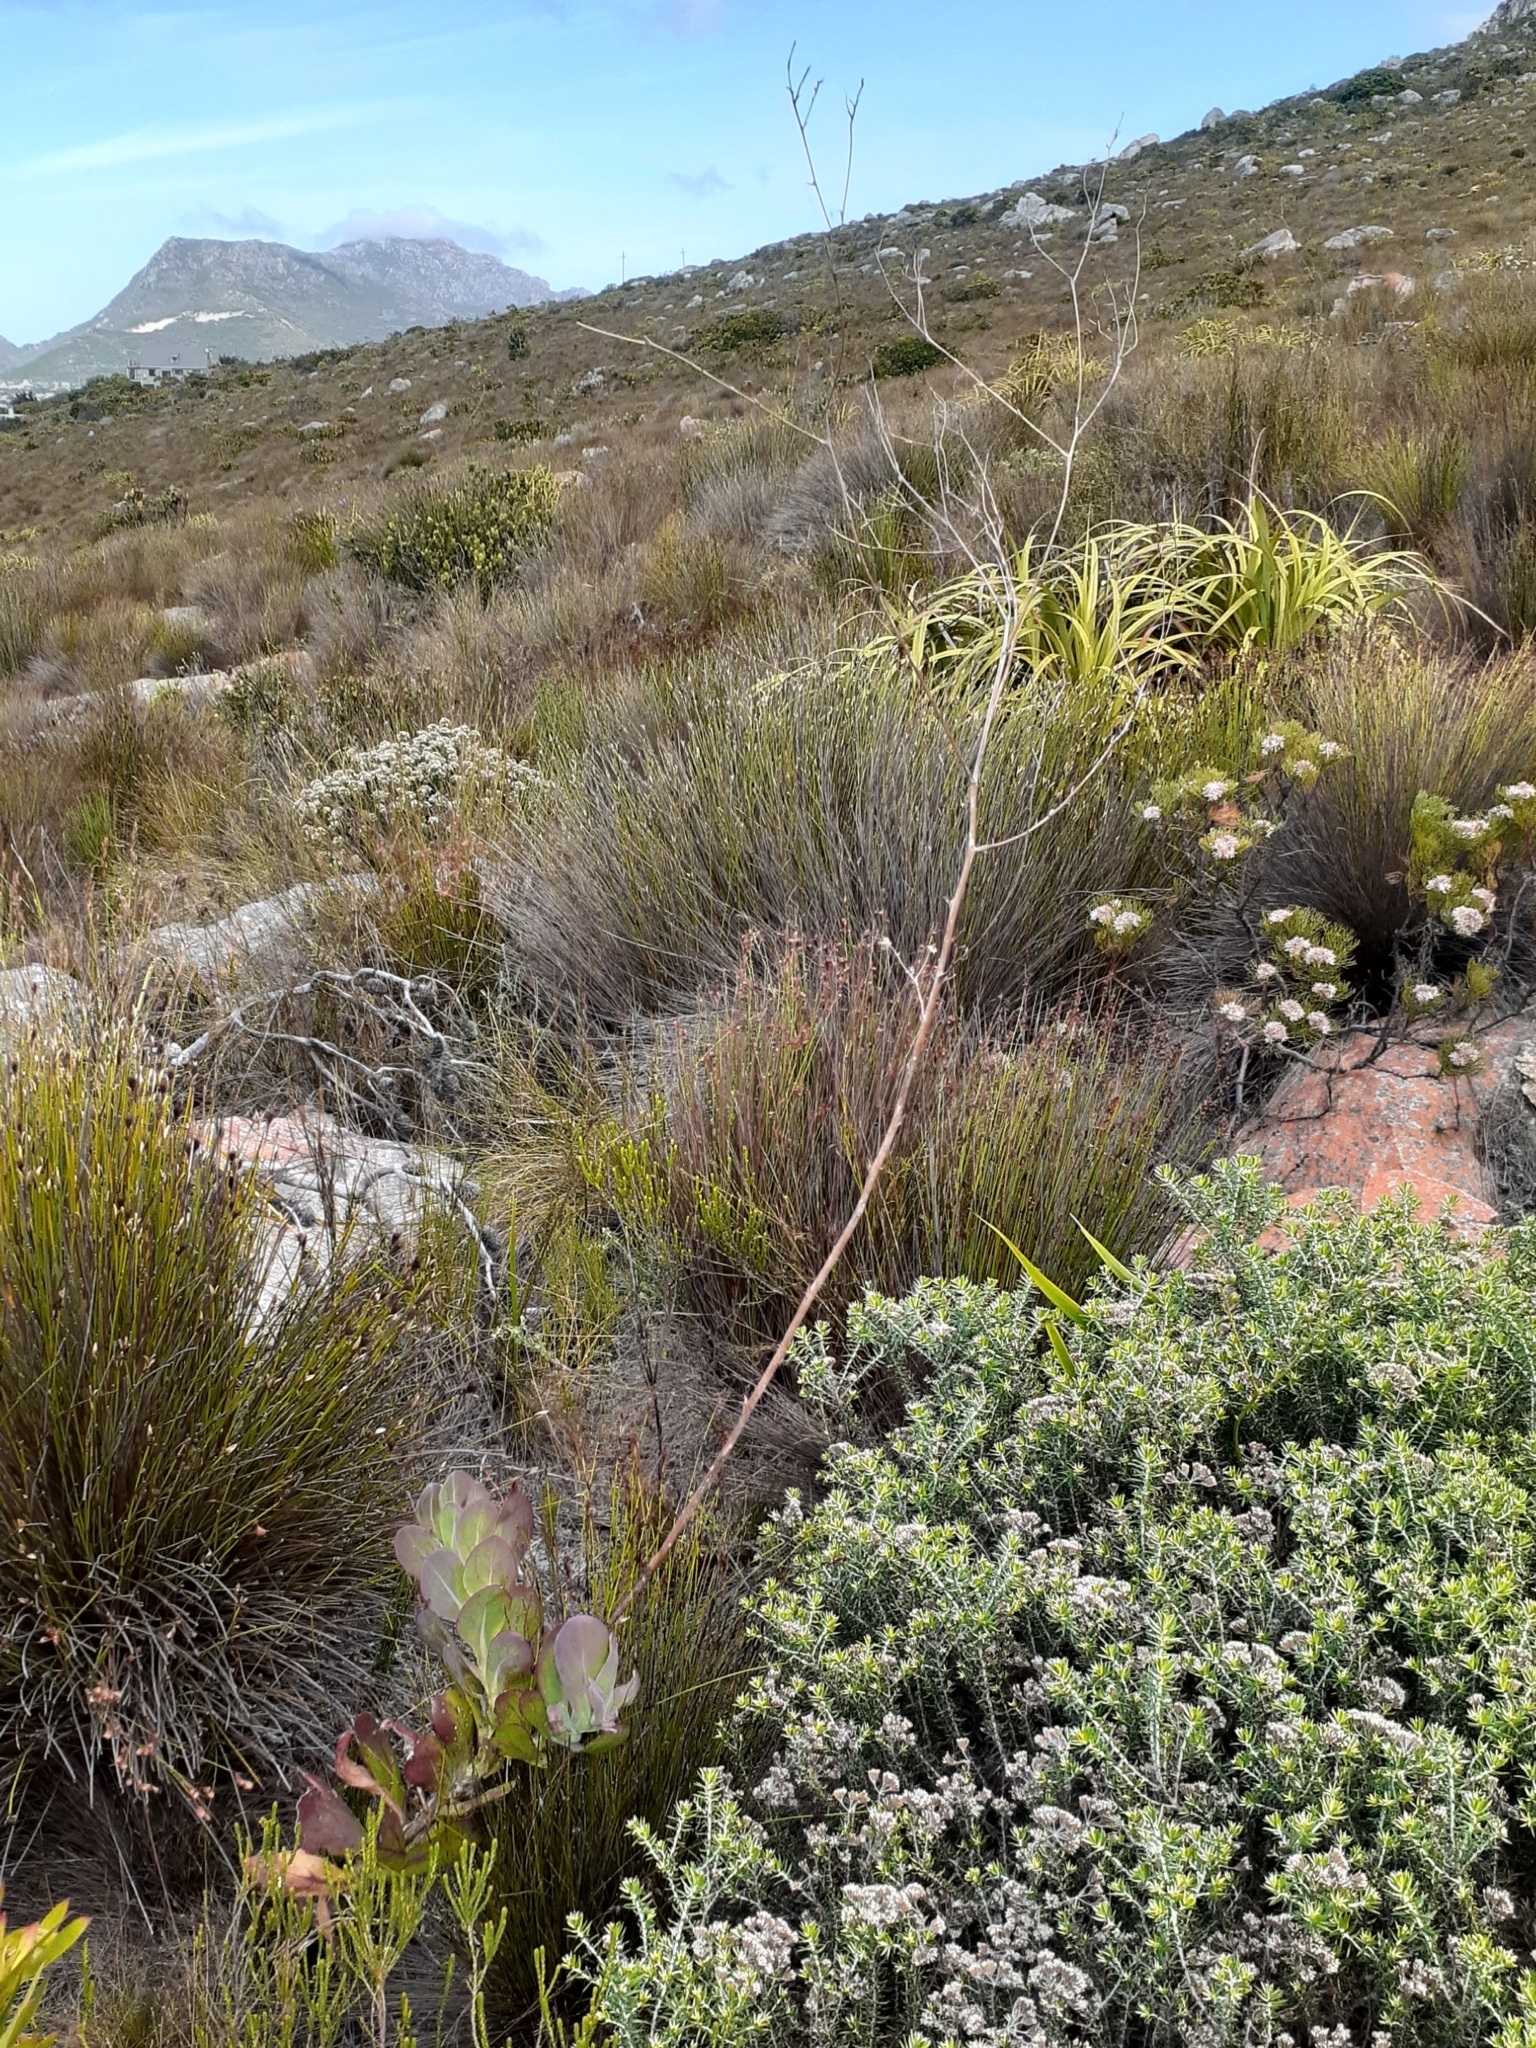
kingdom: Plantae
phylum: Tracheophyta
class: Magnoliopsida
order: Asterales
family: Asteraceae
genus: Othonna
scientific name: Othonna quinquedentata
